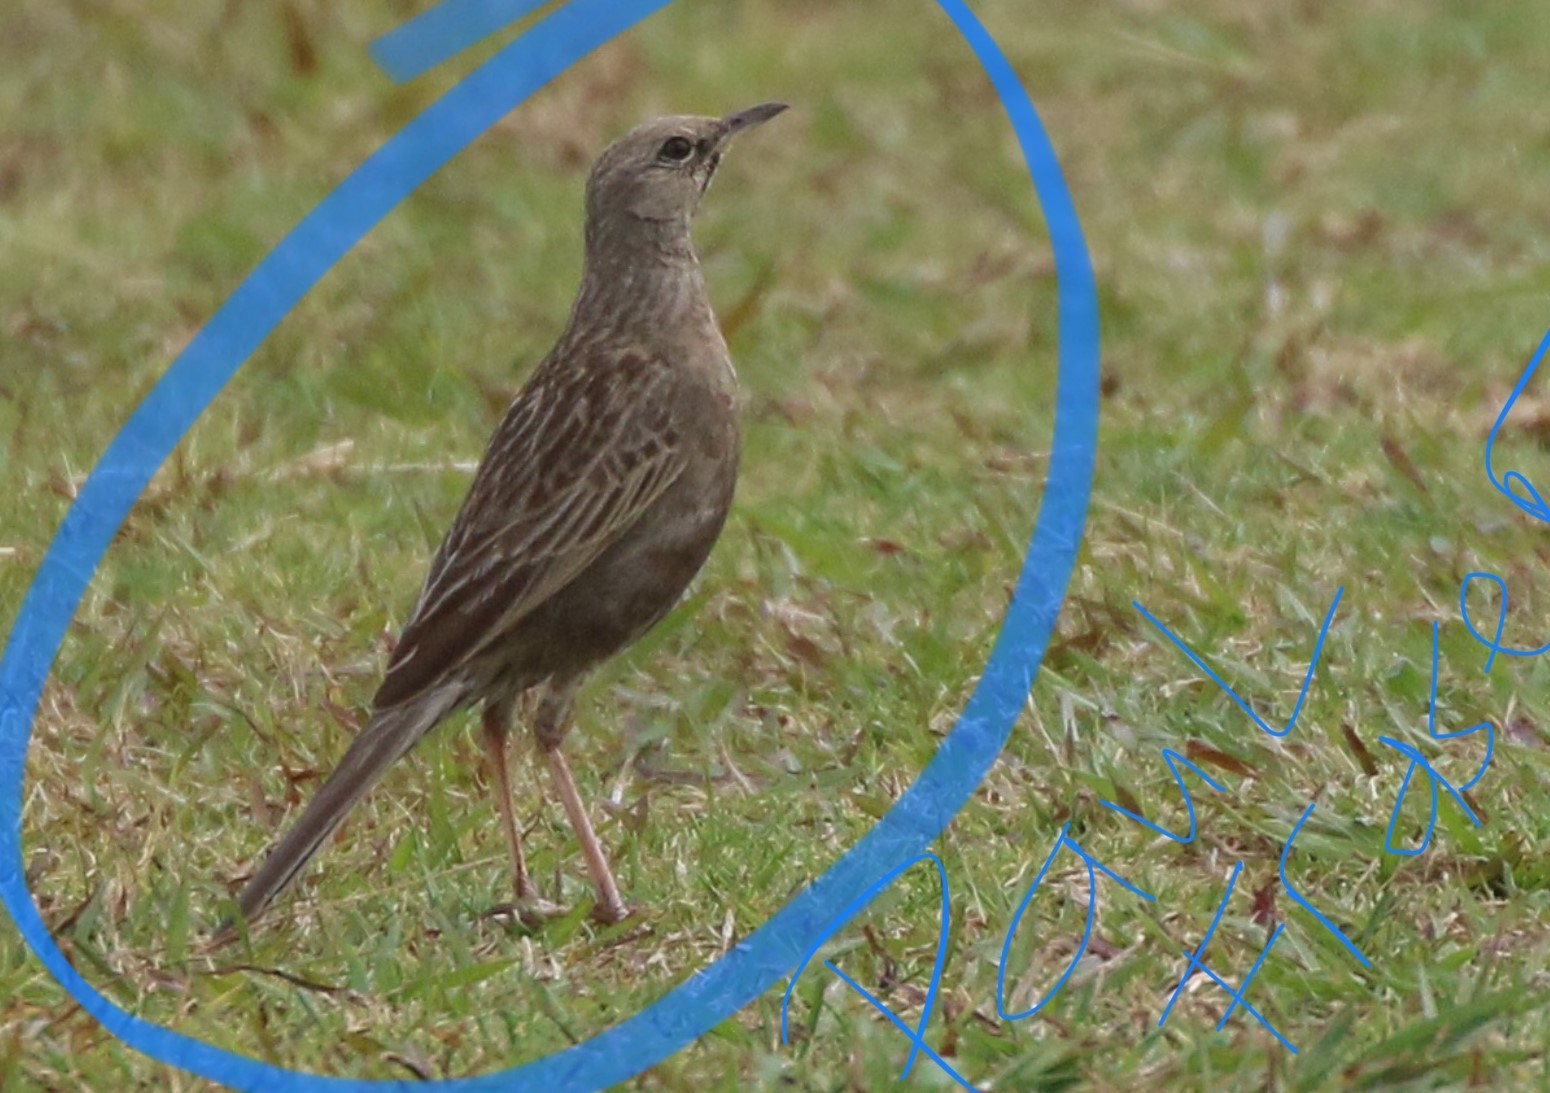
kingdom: Animalia
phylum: Chordata
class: Aves
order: Passeriformes
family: Locustellidae
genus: Megalurus
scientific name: Megalurus cruralis
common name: Brown songlark
